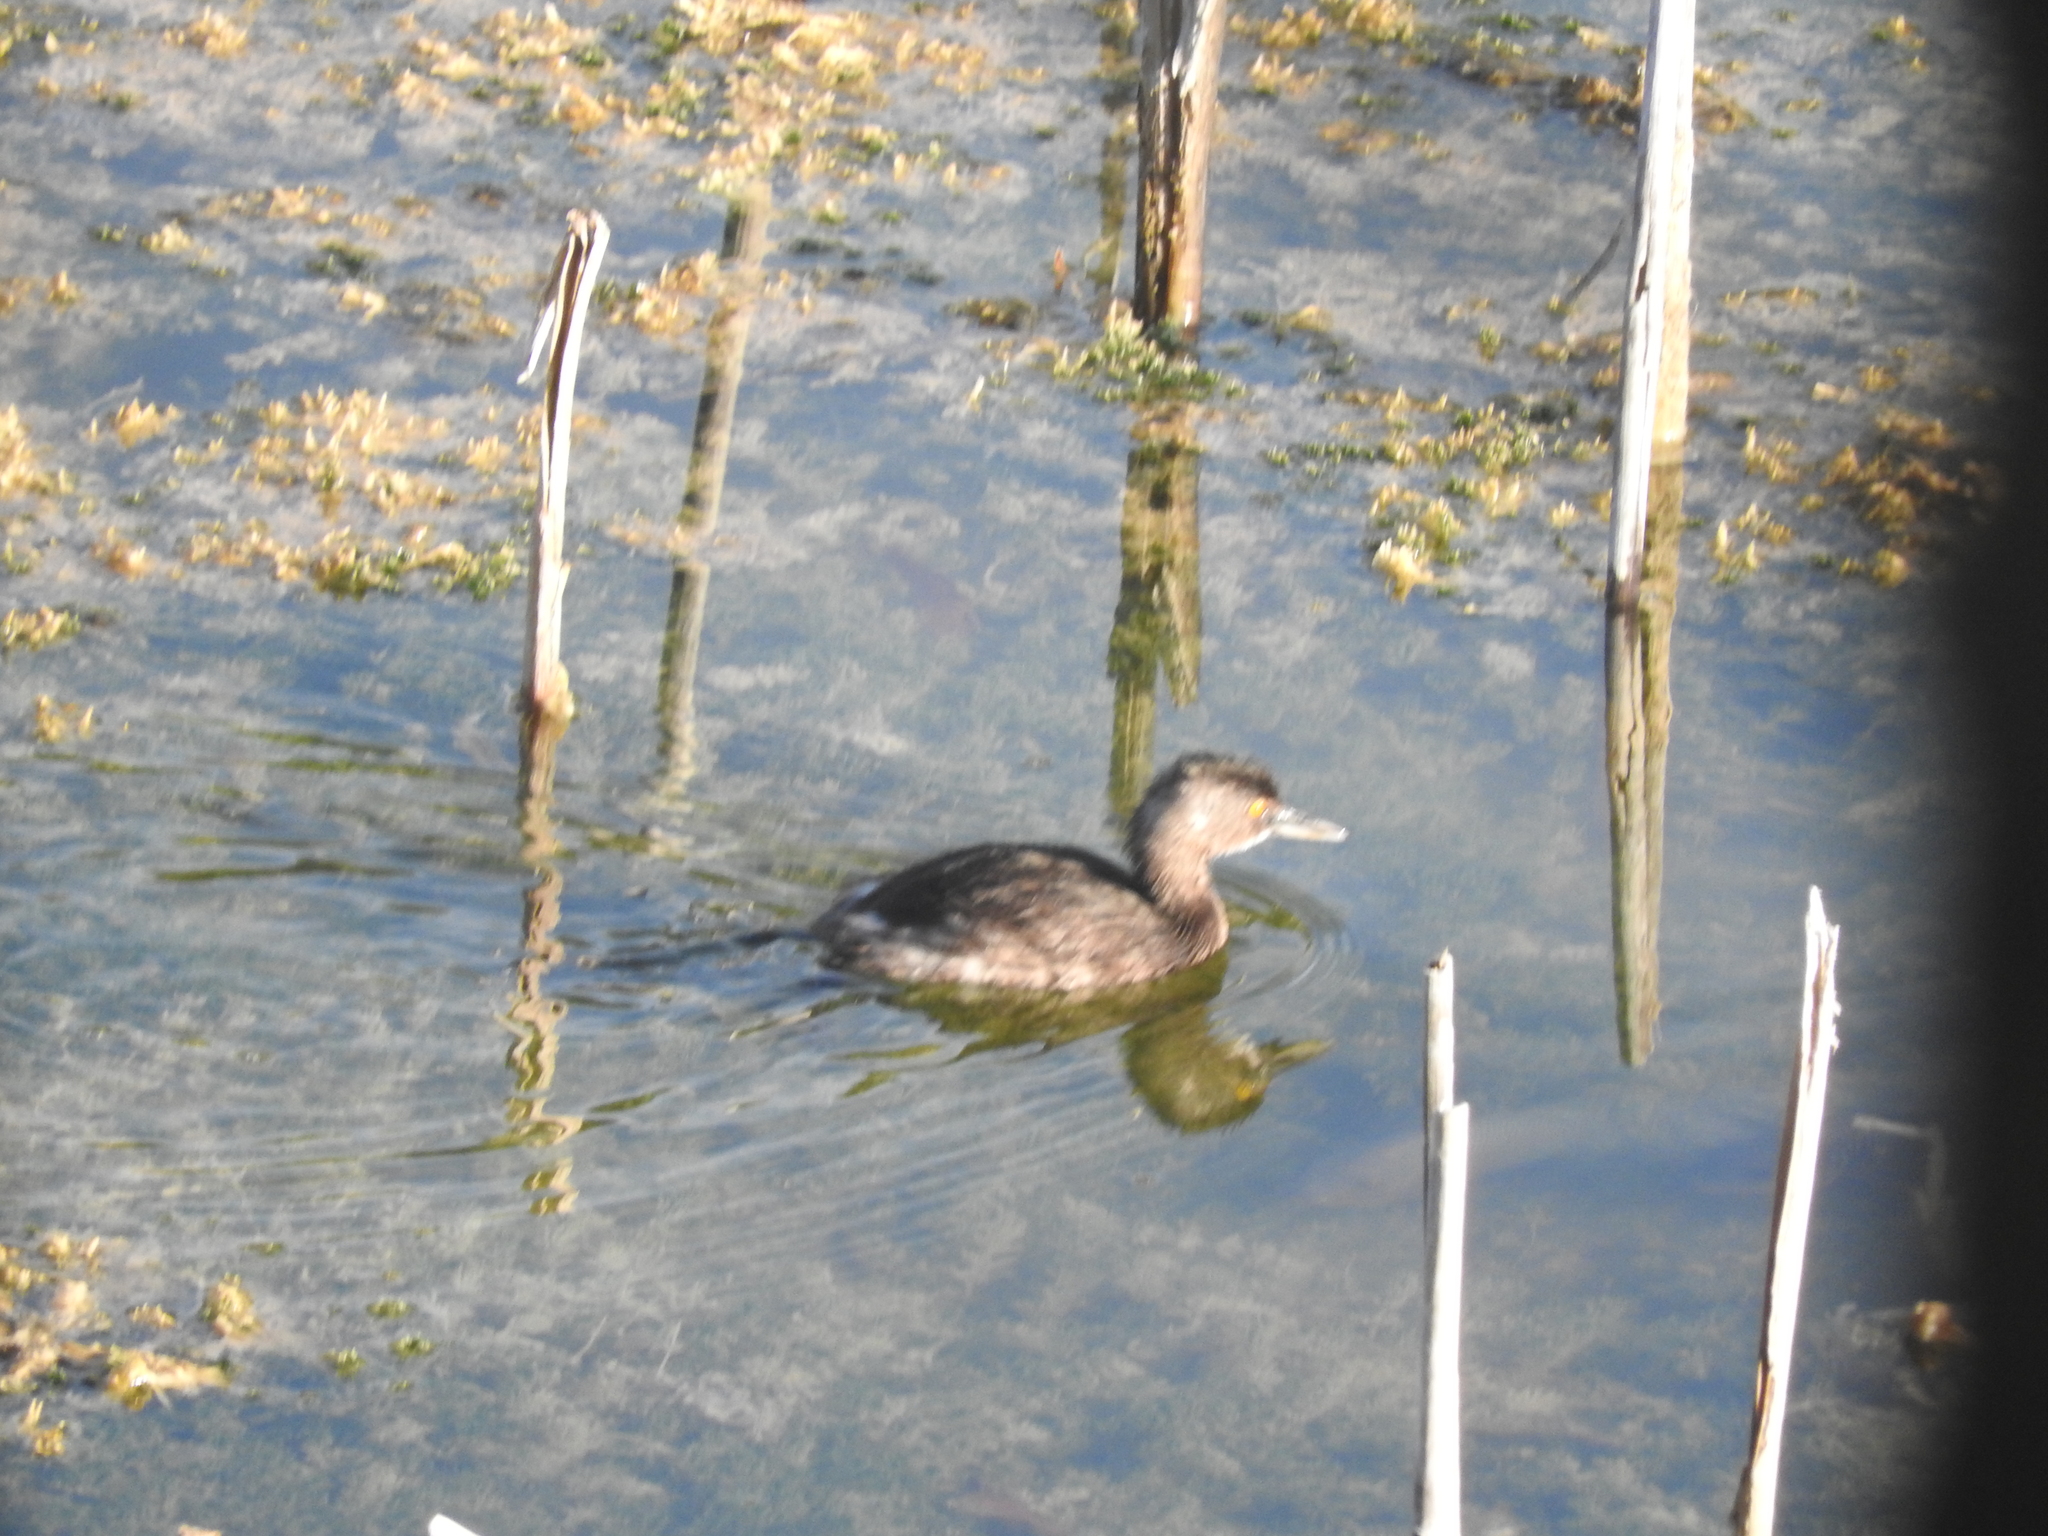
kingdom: Animalia
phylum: Chordata
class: Aves
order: Podicipediformes
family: Podicipedidae
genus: Tachybaptus
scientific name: Tachybaptus dominicus
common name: Least grebe
